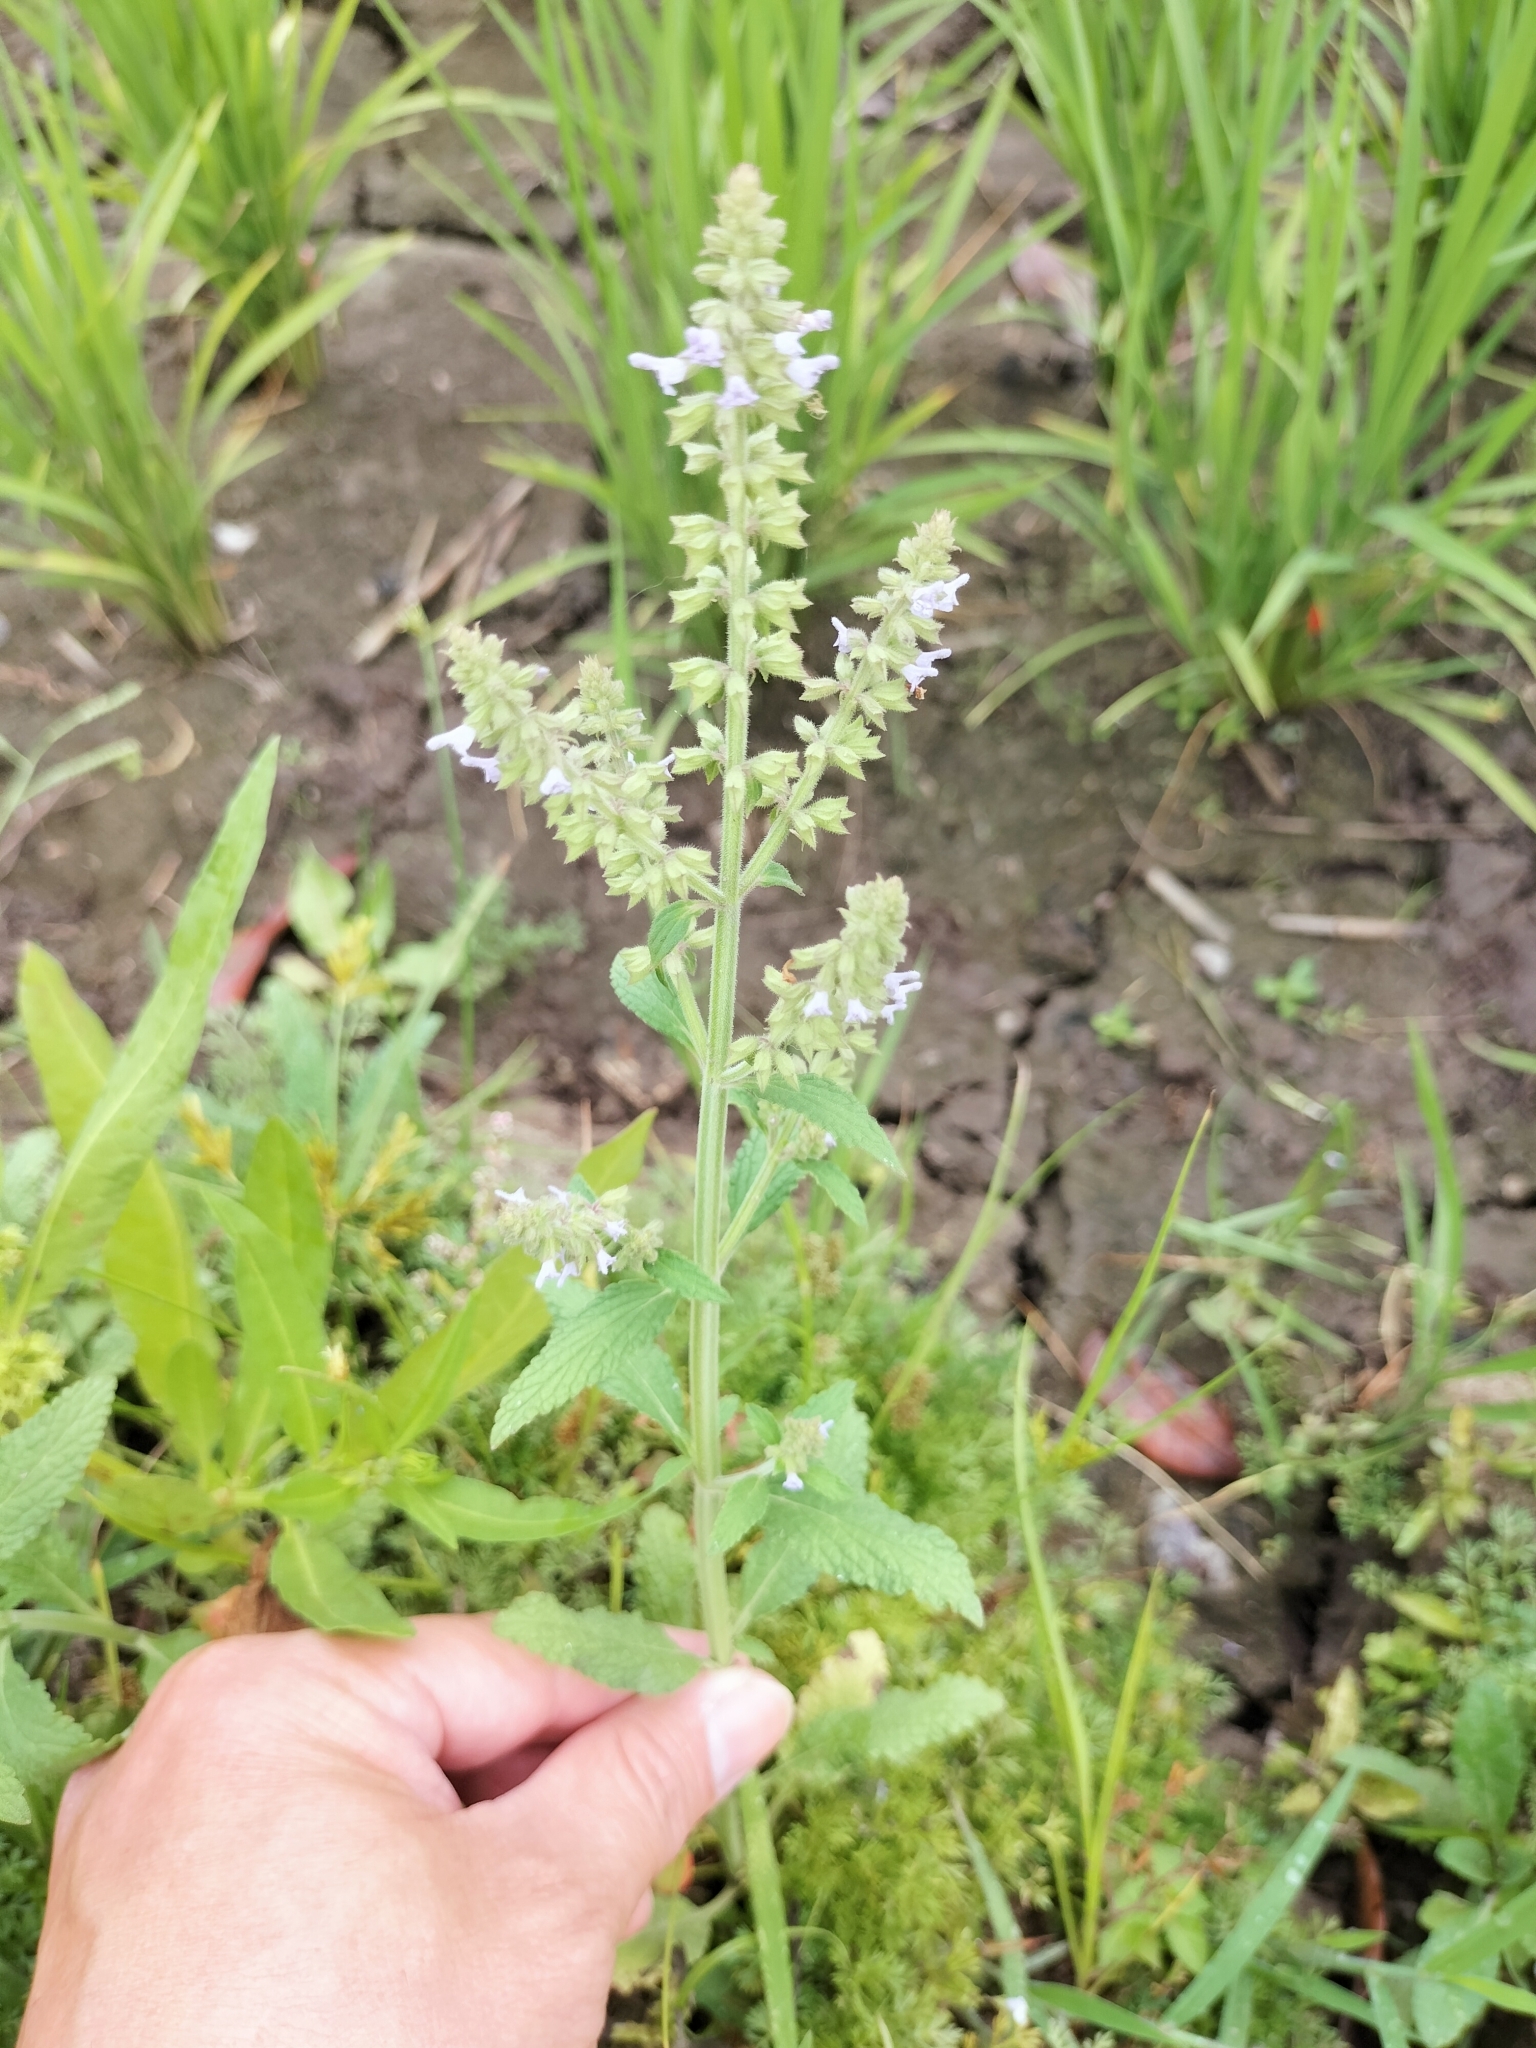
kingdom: Plantae
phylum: Tracheophyta
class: Magnoliopsida
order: Lamiales
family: Lamiaceae
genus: Salvia
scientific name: Salvia plebeia
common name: Australian sage
